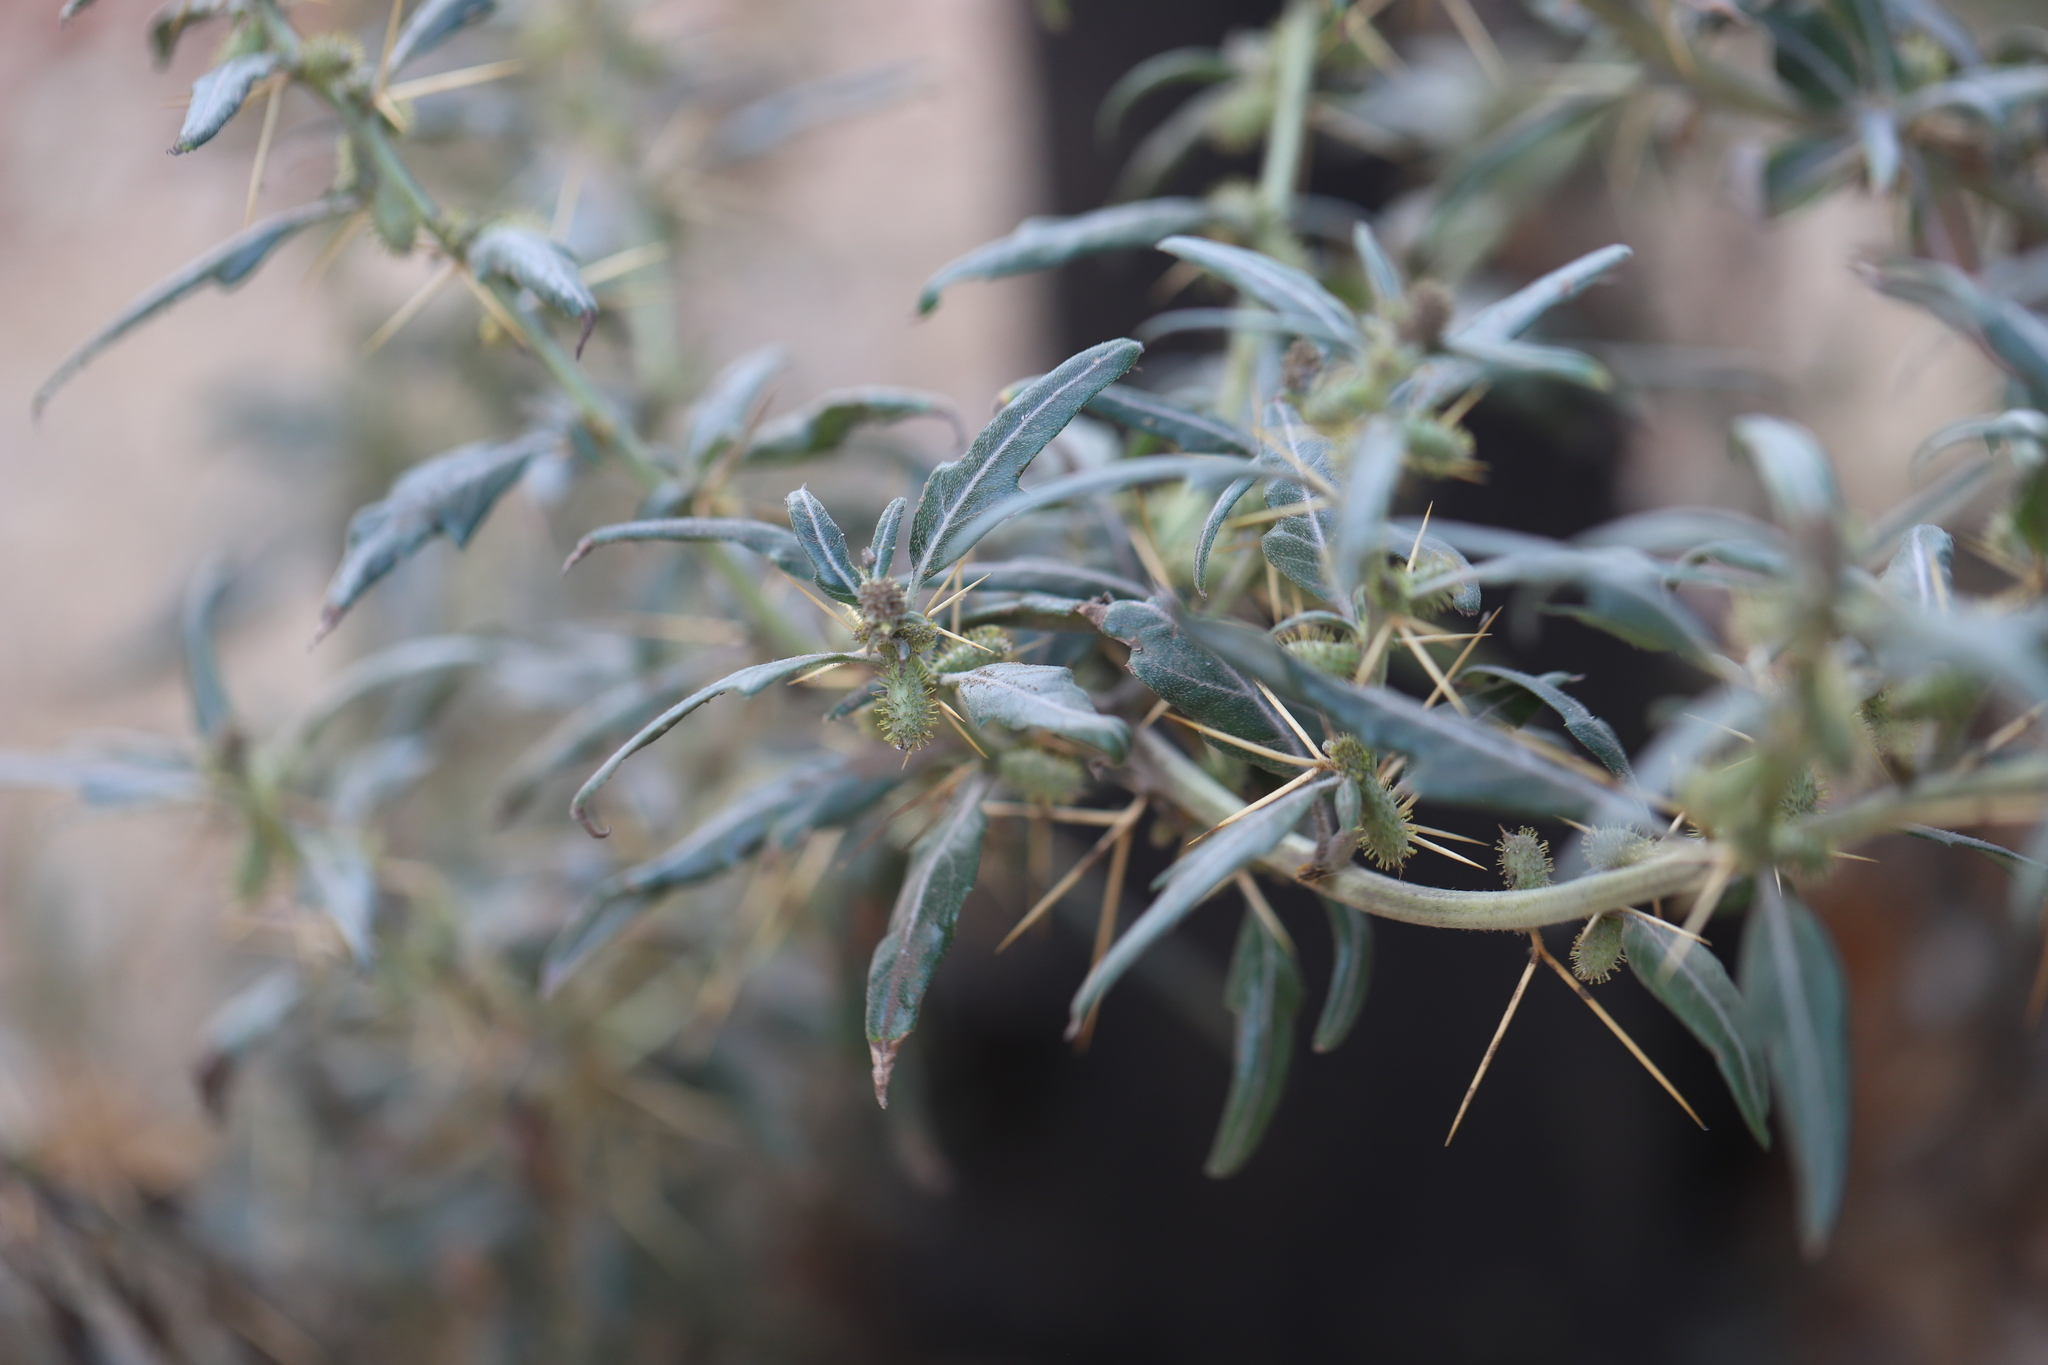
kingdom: Plantae
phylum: Tracheophyta
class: Magnoliopsida
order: Asterales
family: Asteraceae
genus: Xanthium
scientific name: Xanthium spinosum
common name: Spiny cocklebur
